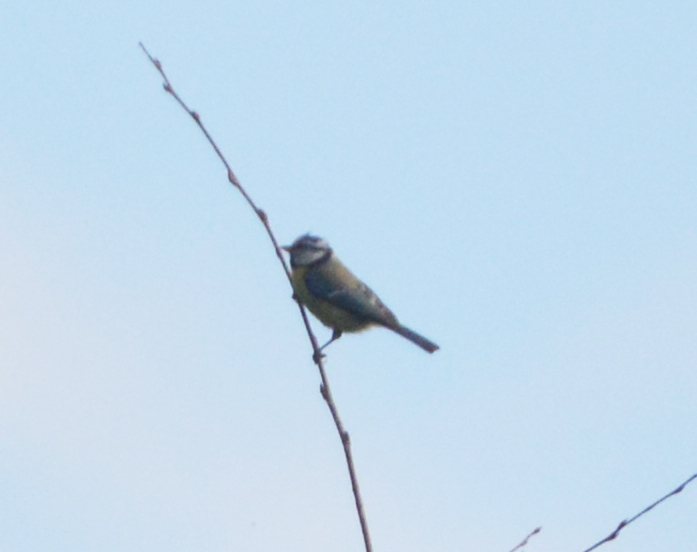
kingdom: Animalia
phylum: Chordata
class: Aves
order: Passeriformes
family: Paridae
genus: Cyanistes
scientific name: Cyanistes caeruleus
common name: Eurasian blue tit
